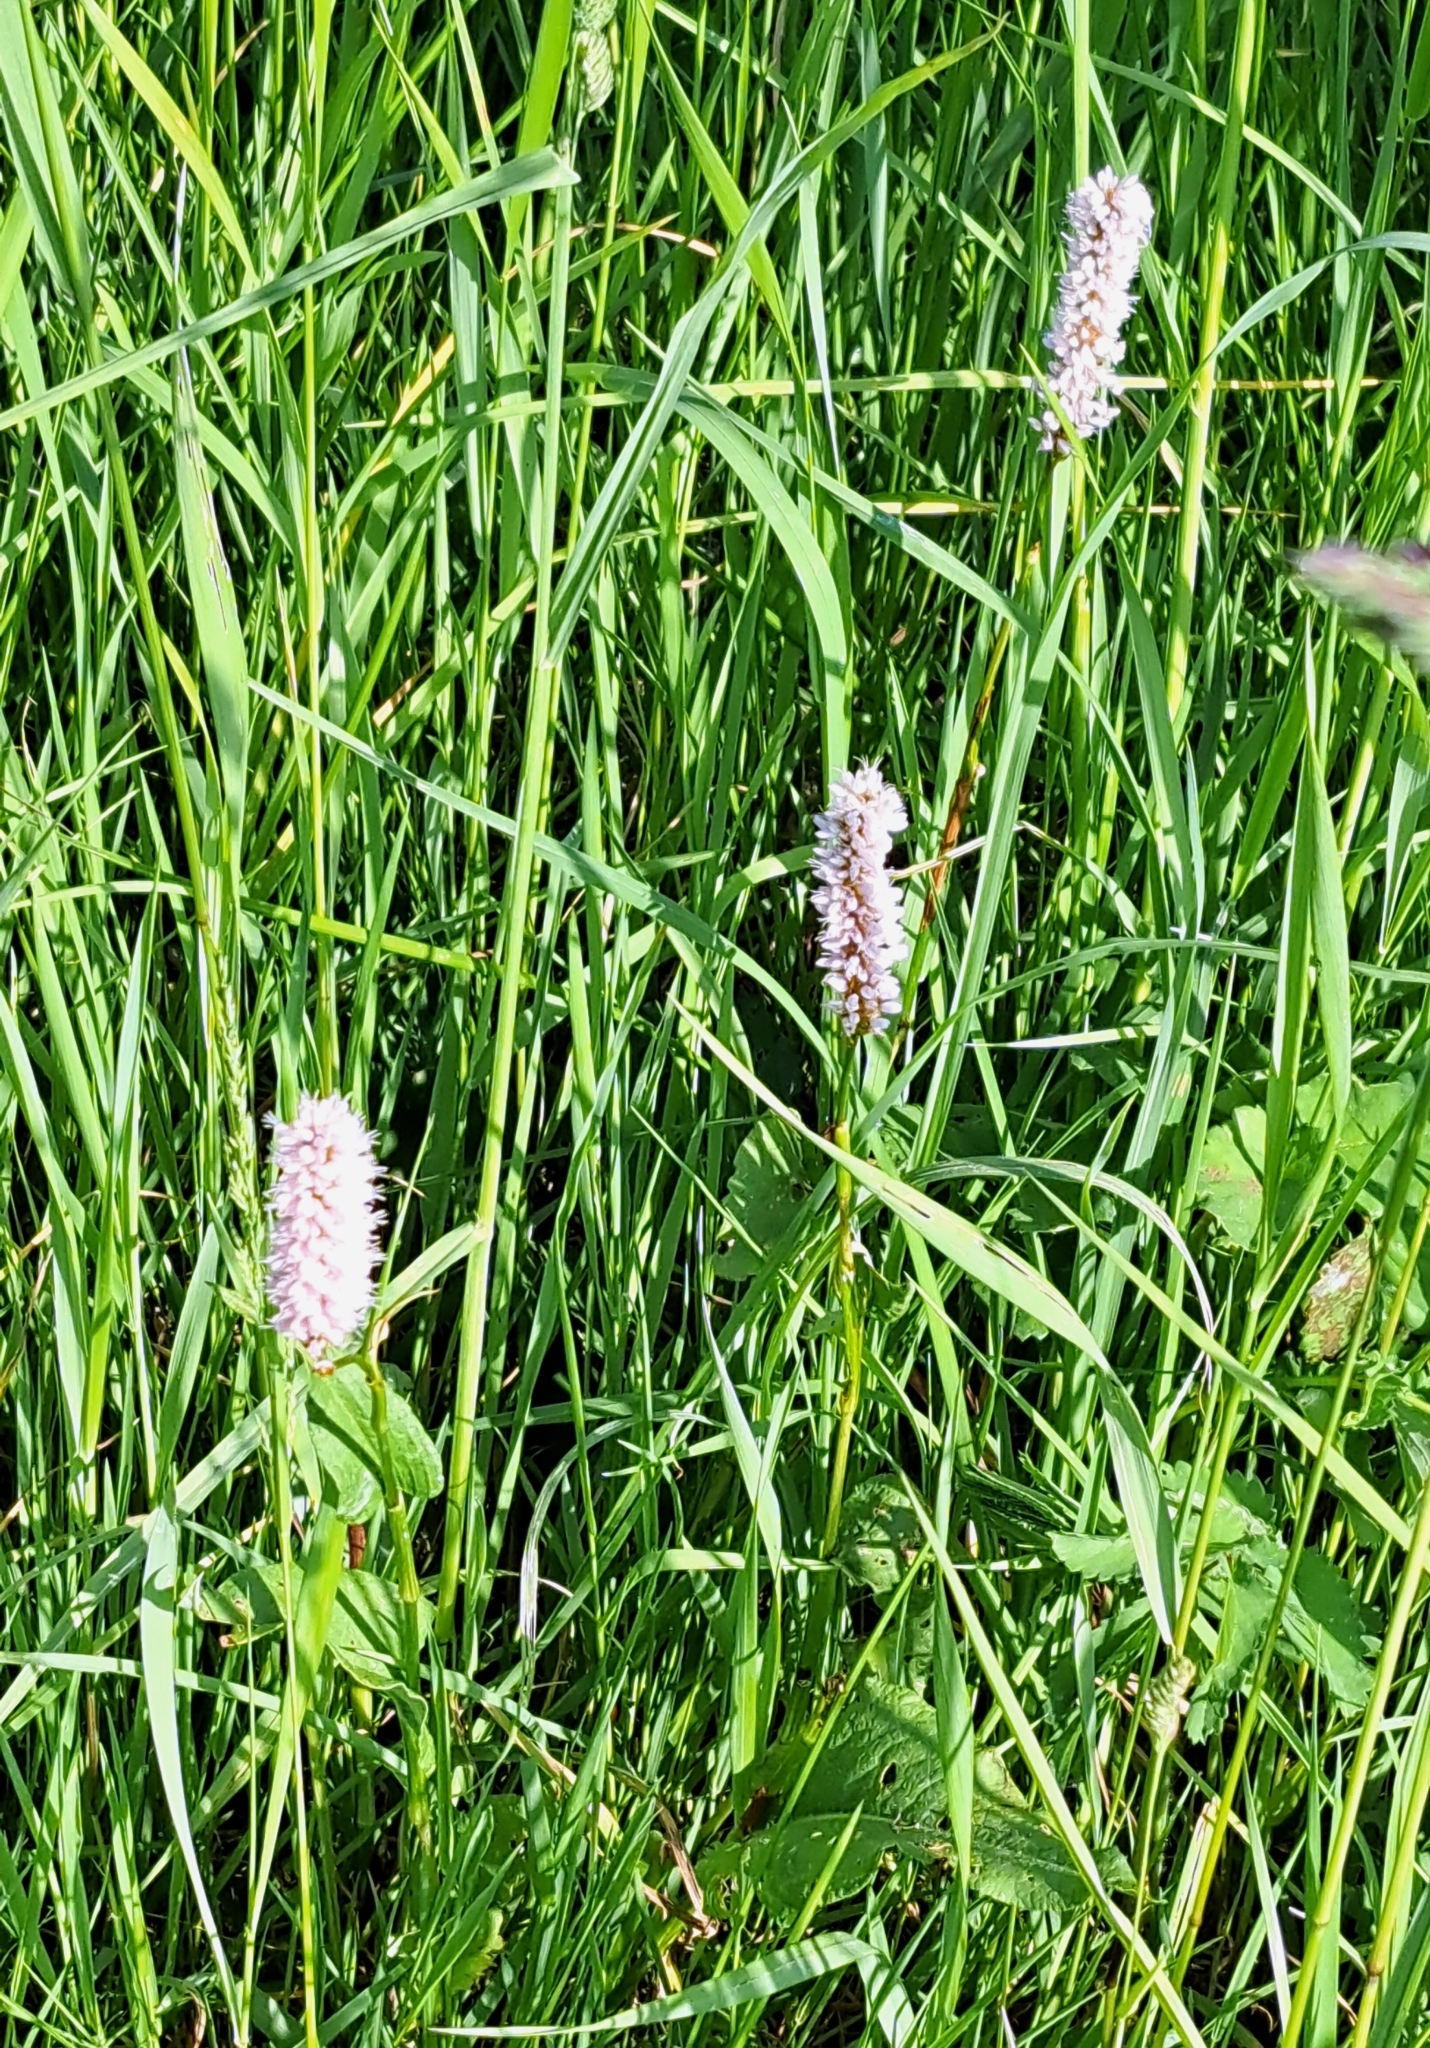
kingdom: Plantae
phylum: Tracheophyta
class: Magnoliopsida
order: Caryophyllales
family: Polygonaceae
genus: Bistorta
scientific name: Bistorta officinalis
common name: Common bistort
